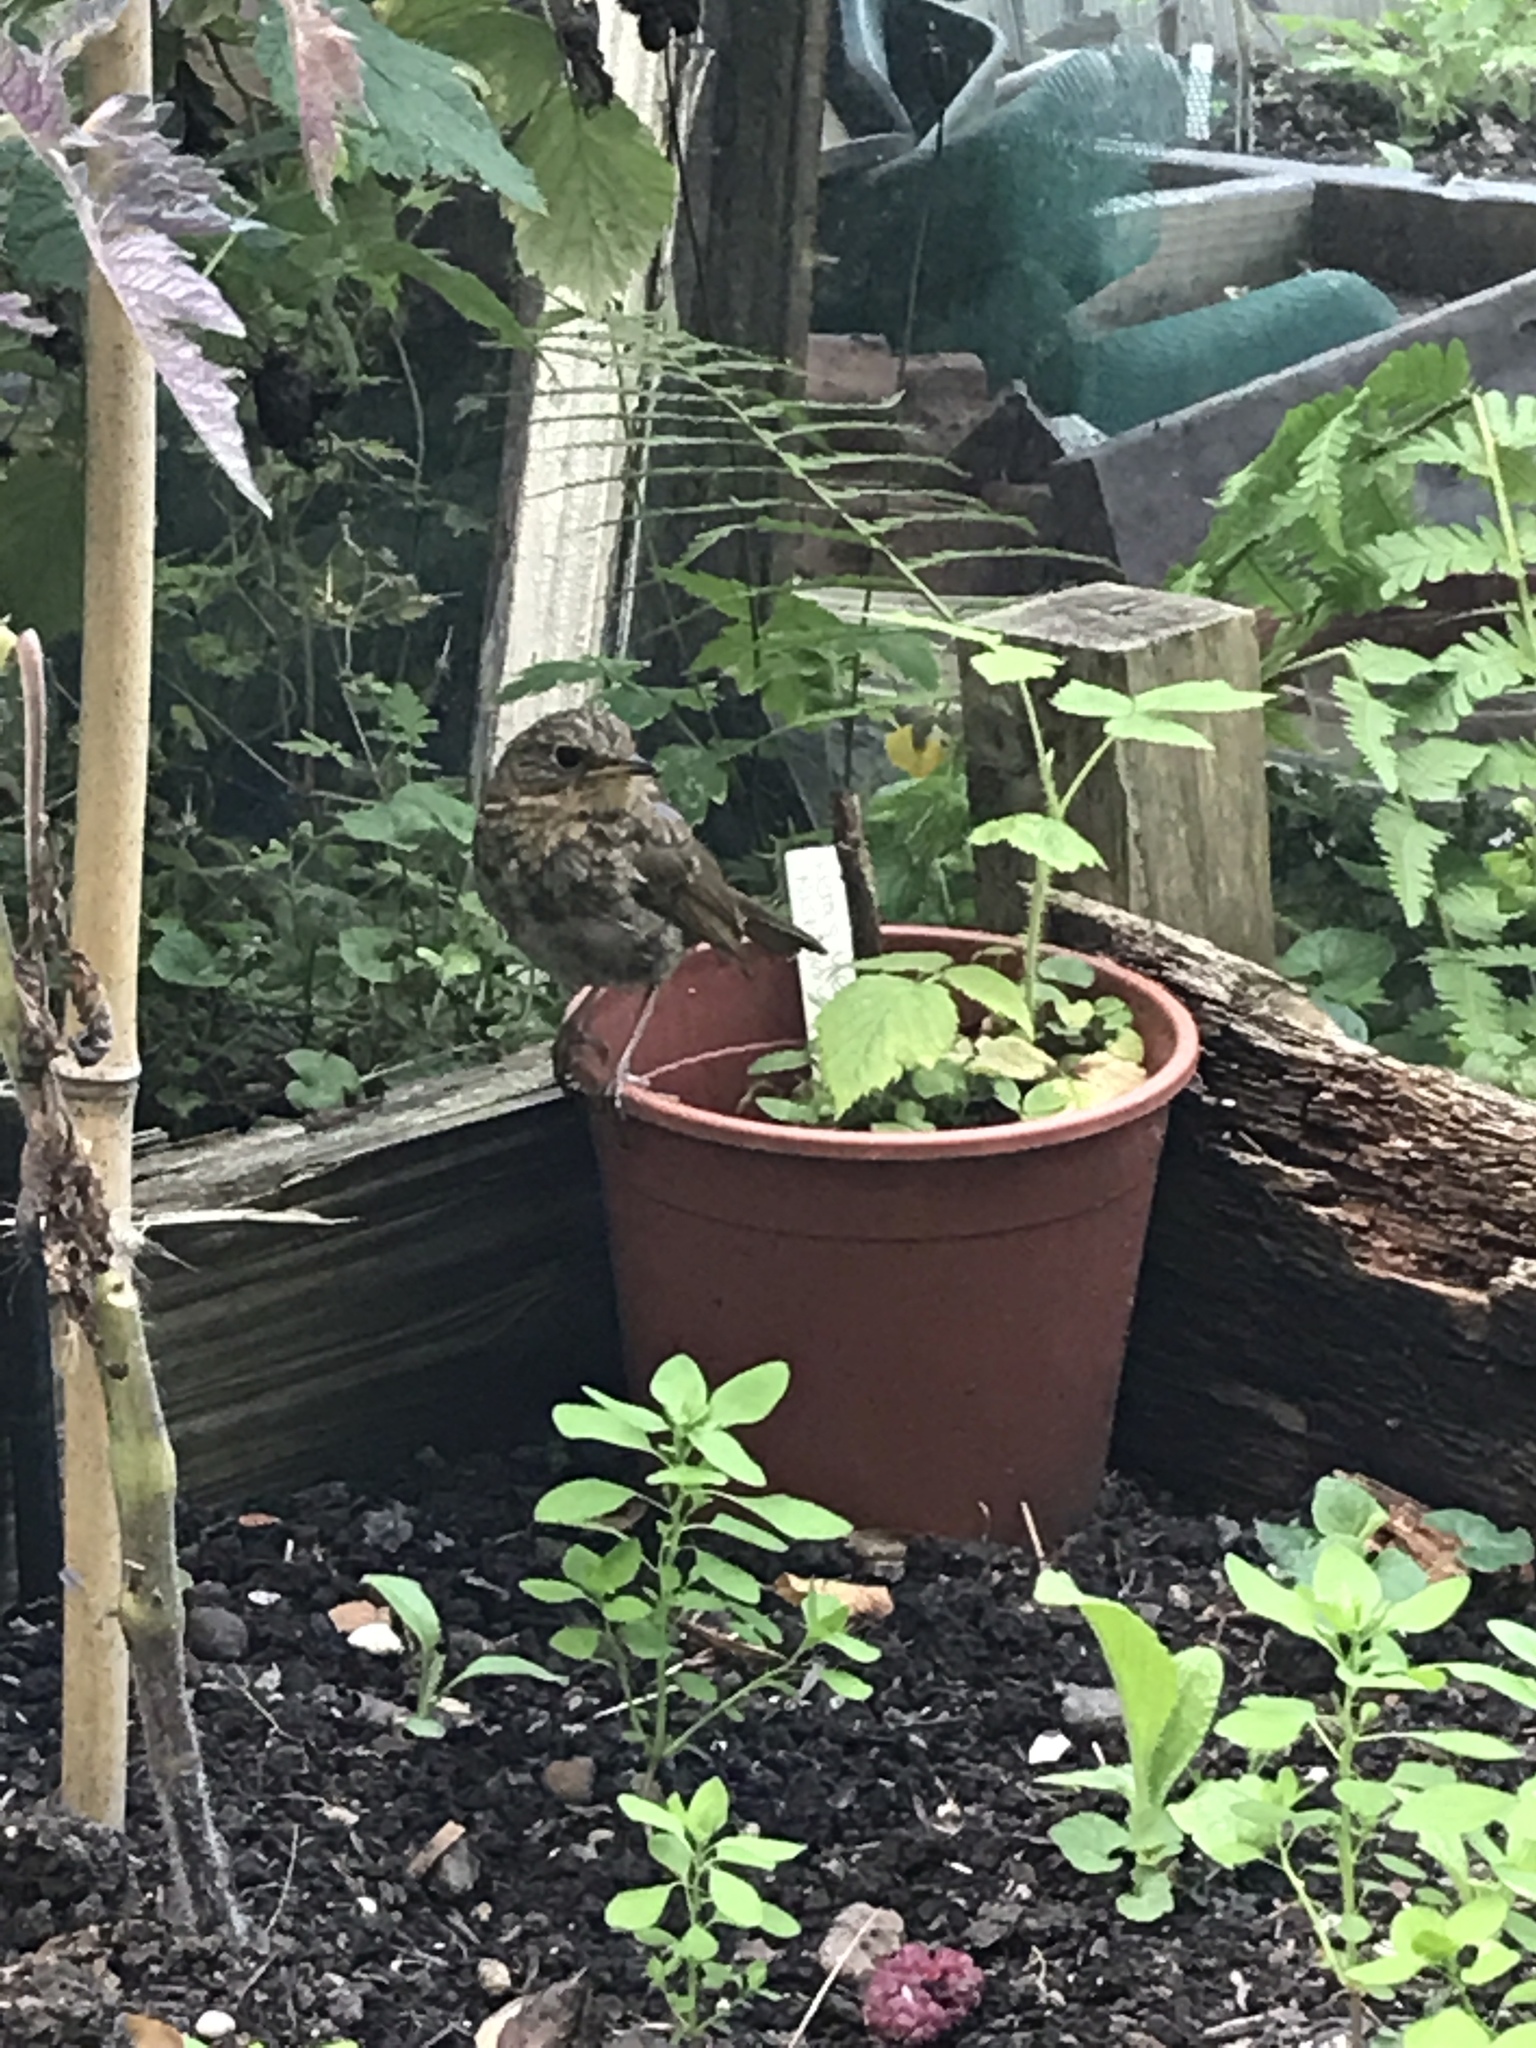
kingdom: Animalia
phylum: Chordata
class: Aves
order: Passeriformes
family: Muscicapidae
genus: Erithacus
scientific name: Erithacus rubecula
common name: European robin
